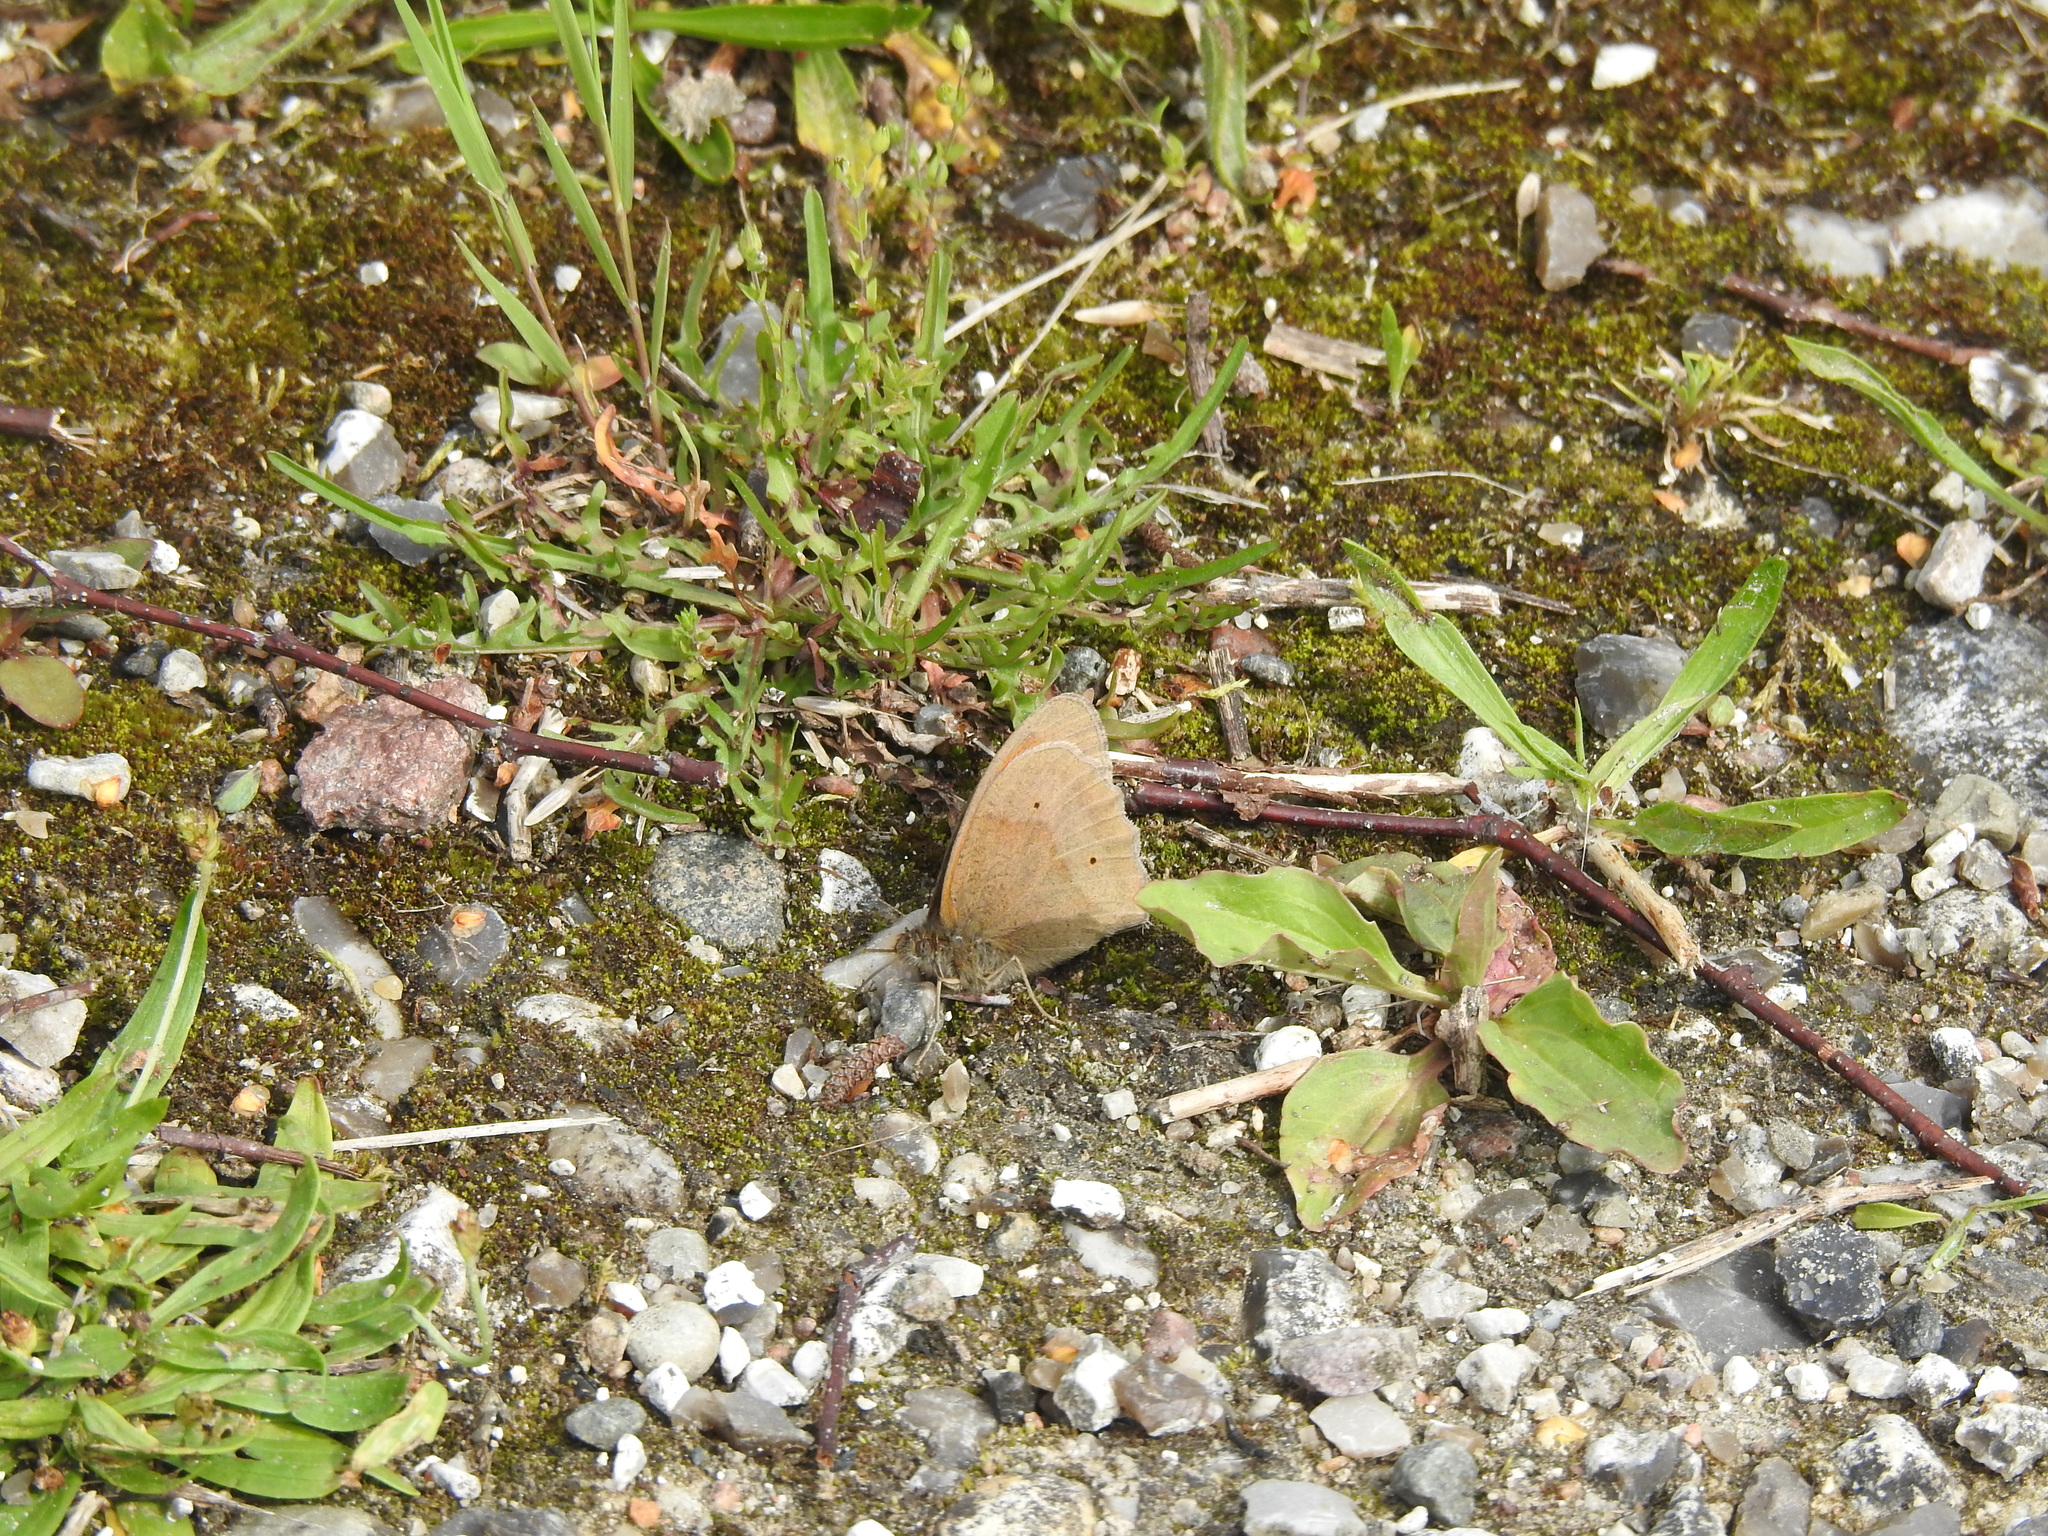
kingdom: Animalia
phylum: Arthropoda
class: Insecta
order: Lepidoptera
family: Nymphalidae
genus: Maniola
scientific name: Maniola jurtina
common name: Meadow brown
